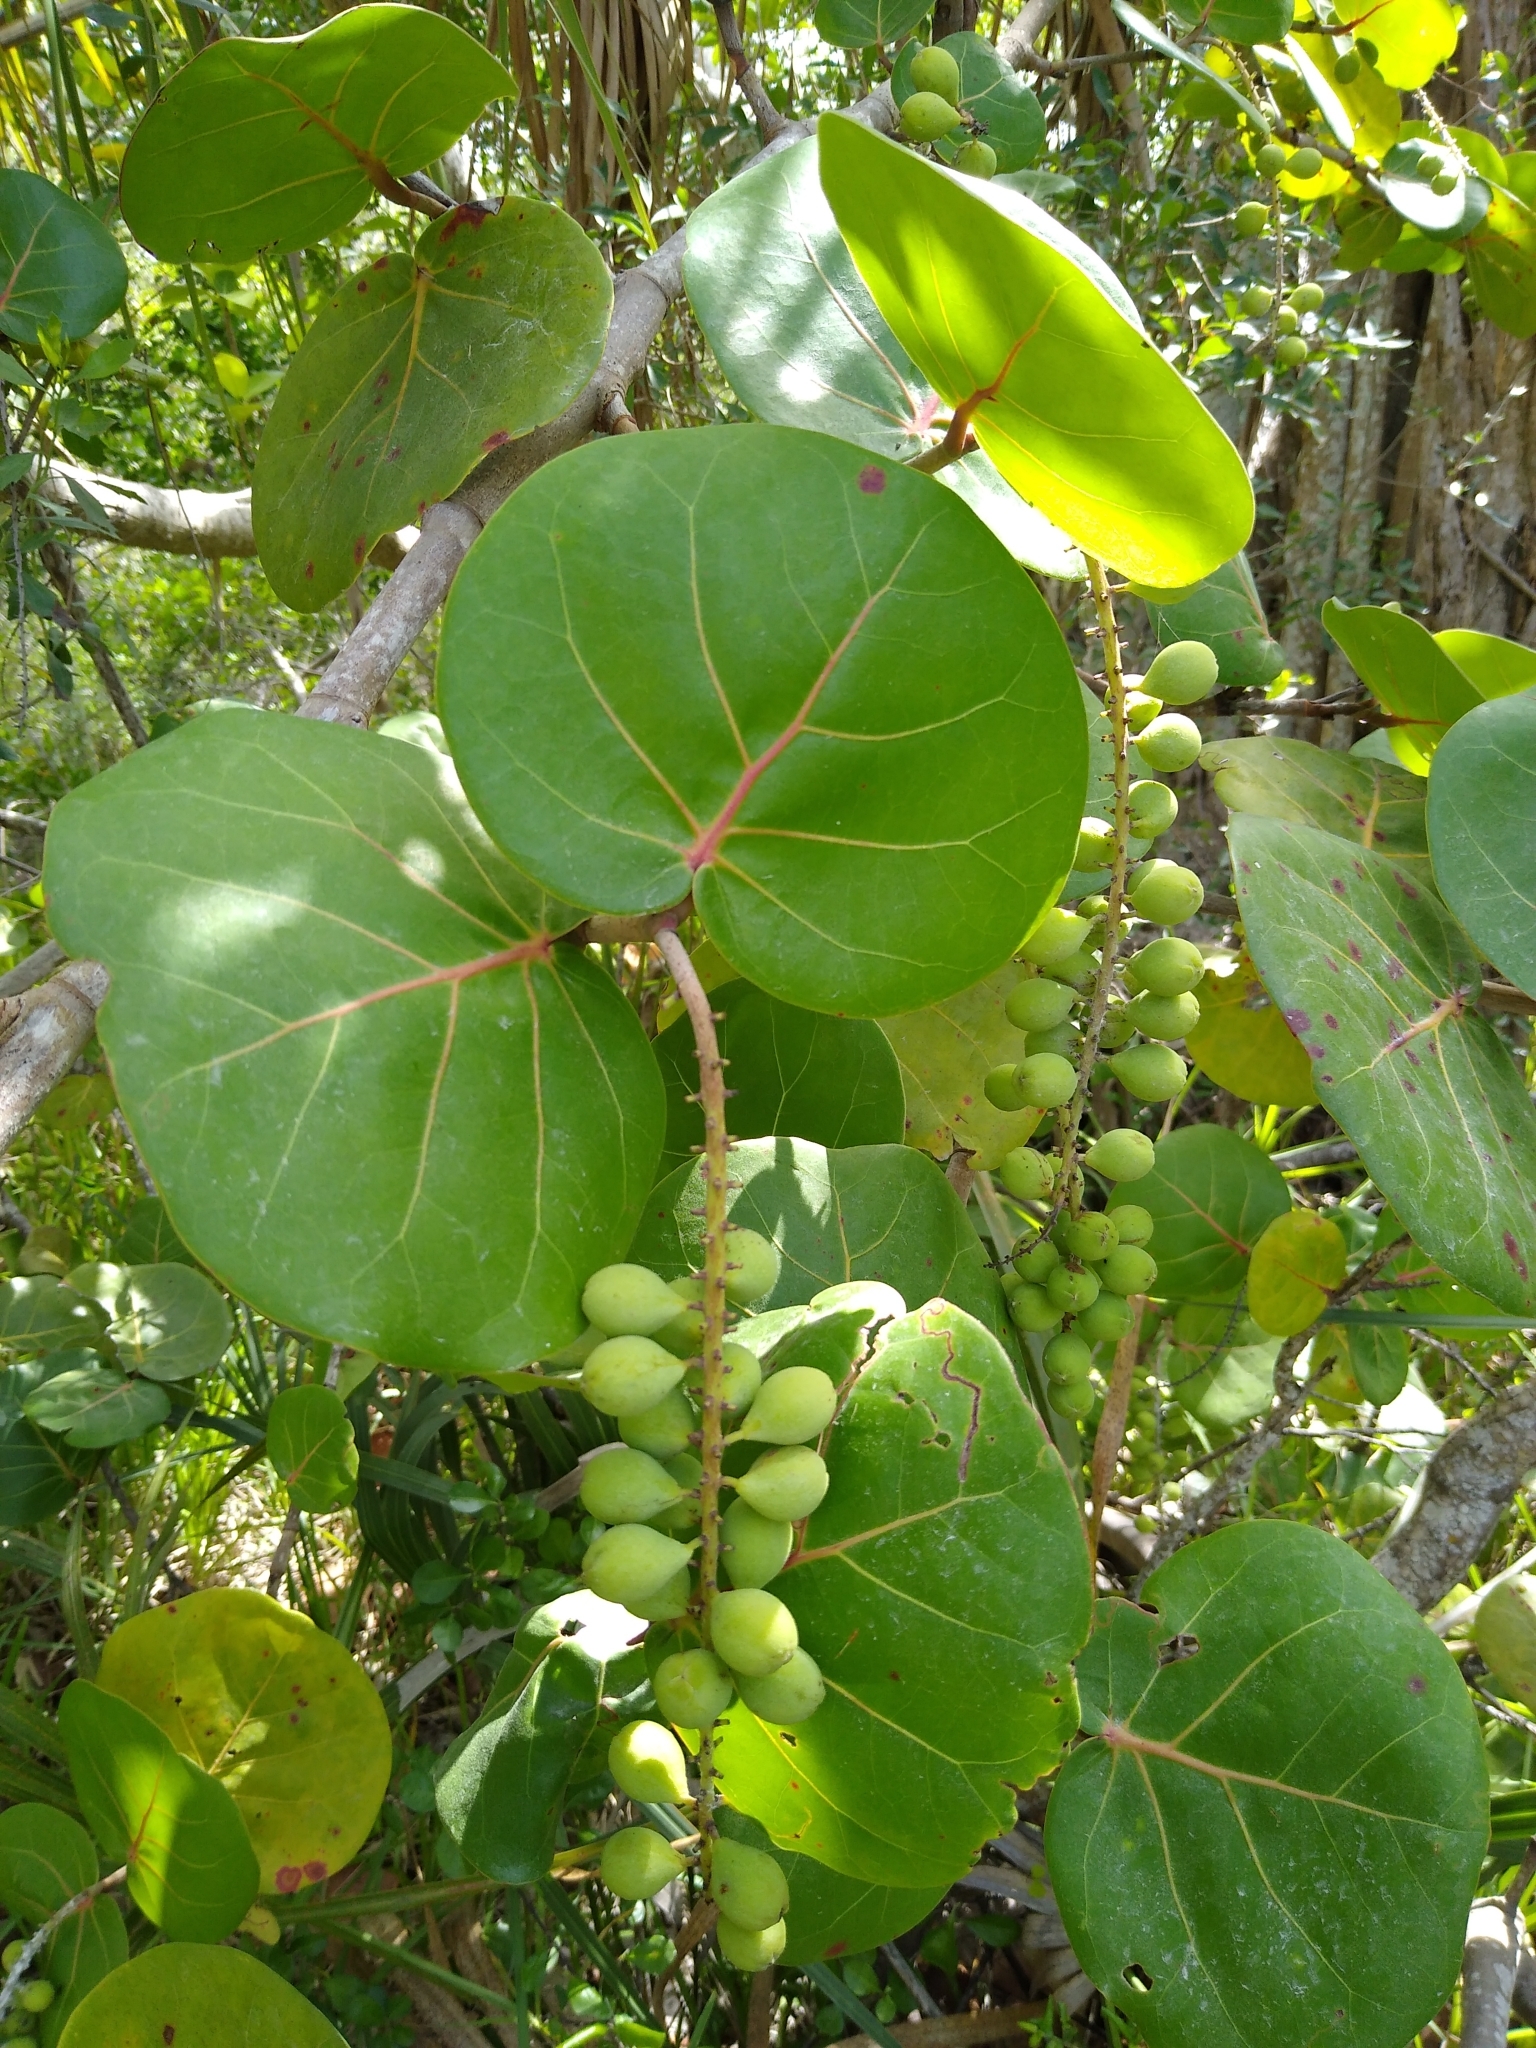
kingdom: Plantae
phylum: Tracheophyta
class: Magnoliopsida
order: Caryophyllales
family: Polygonaceae
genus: Coccoloba
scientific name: Coccoloba uvifera
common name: Seagrape
